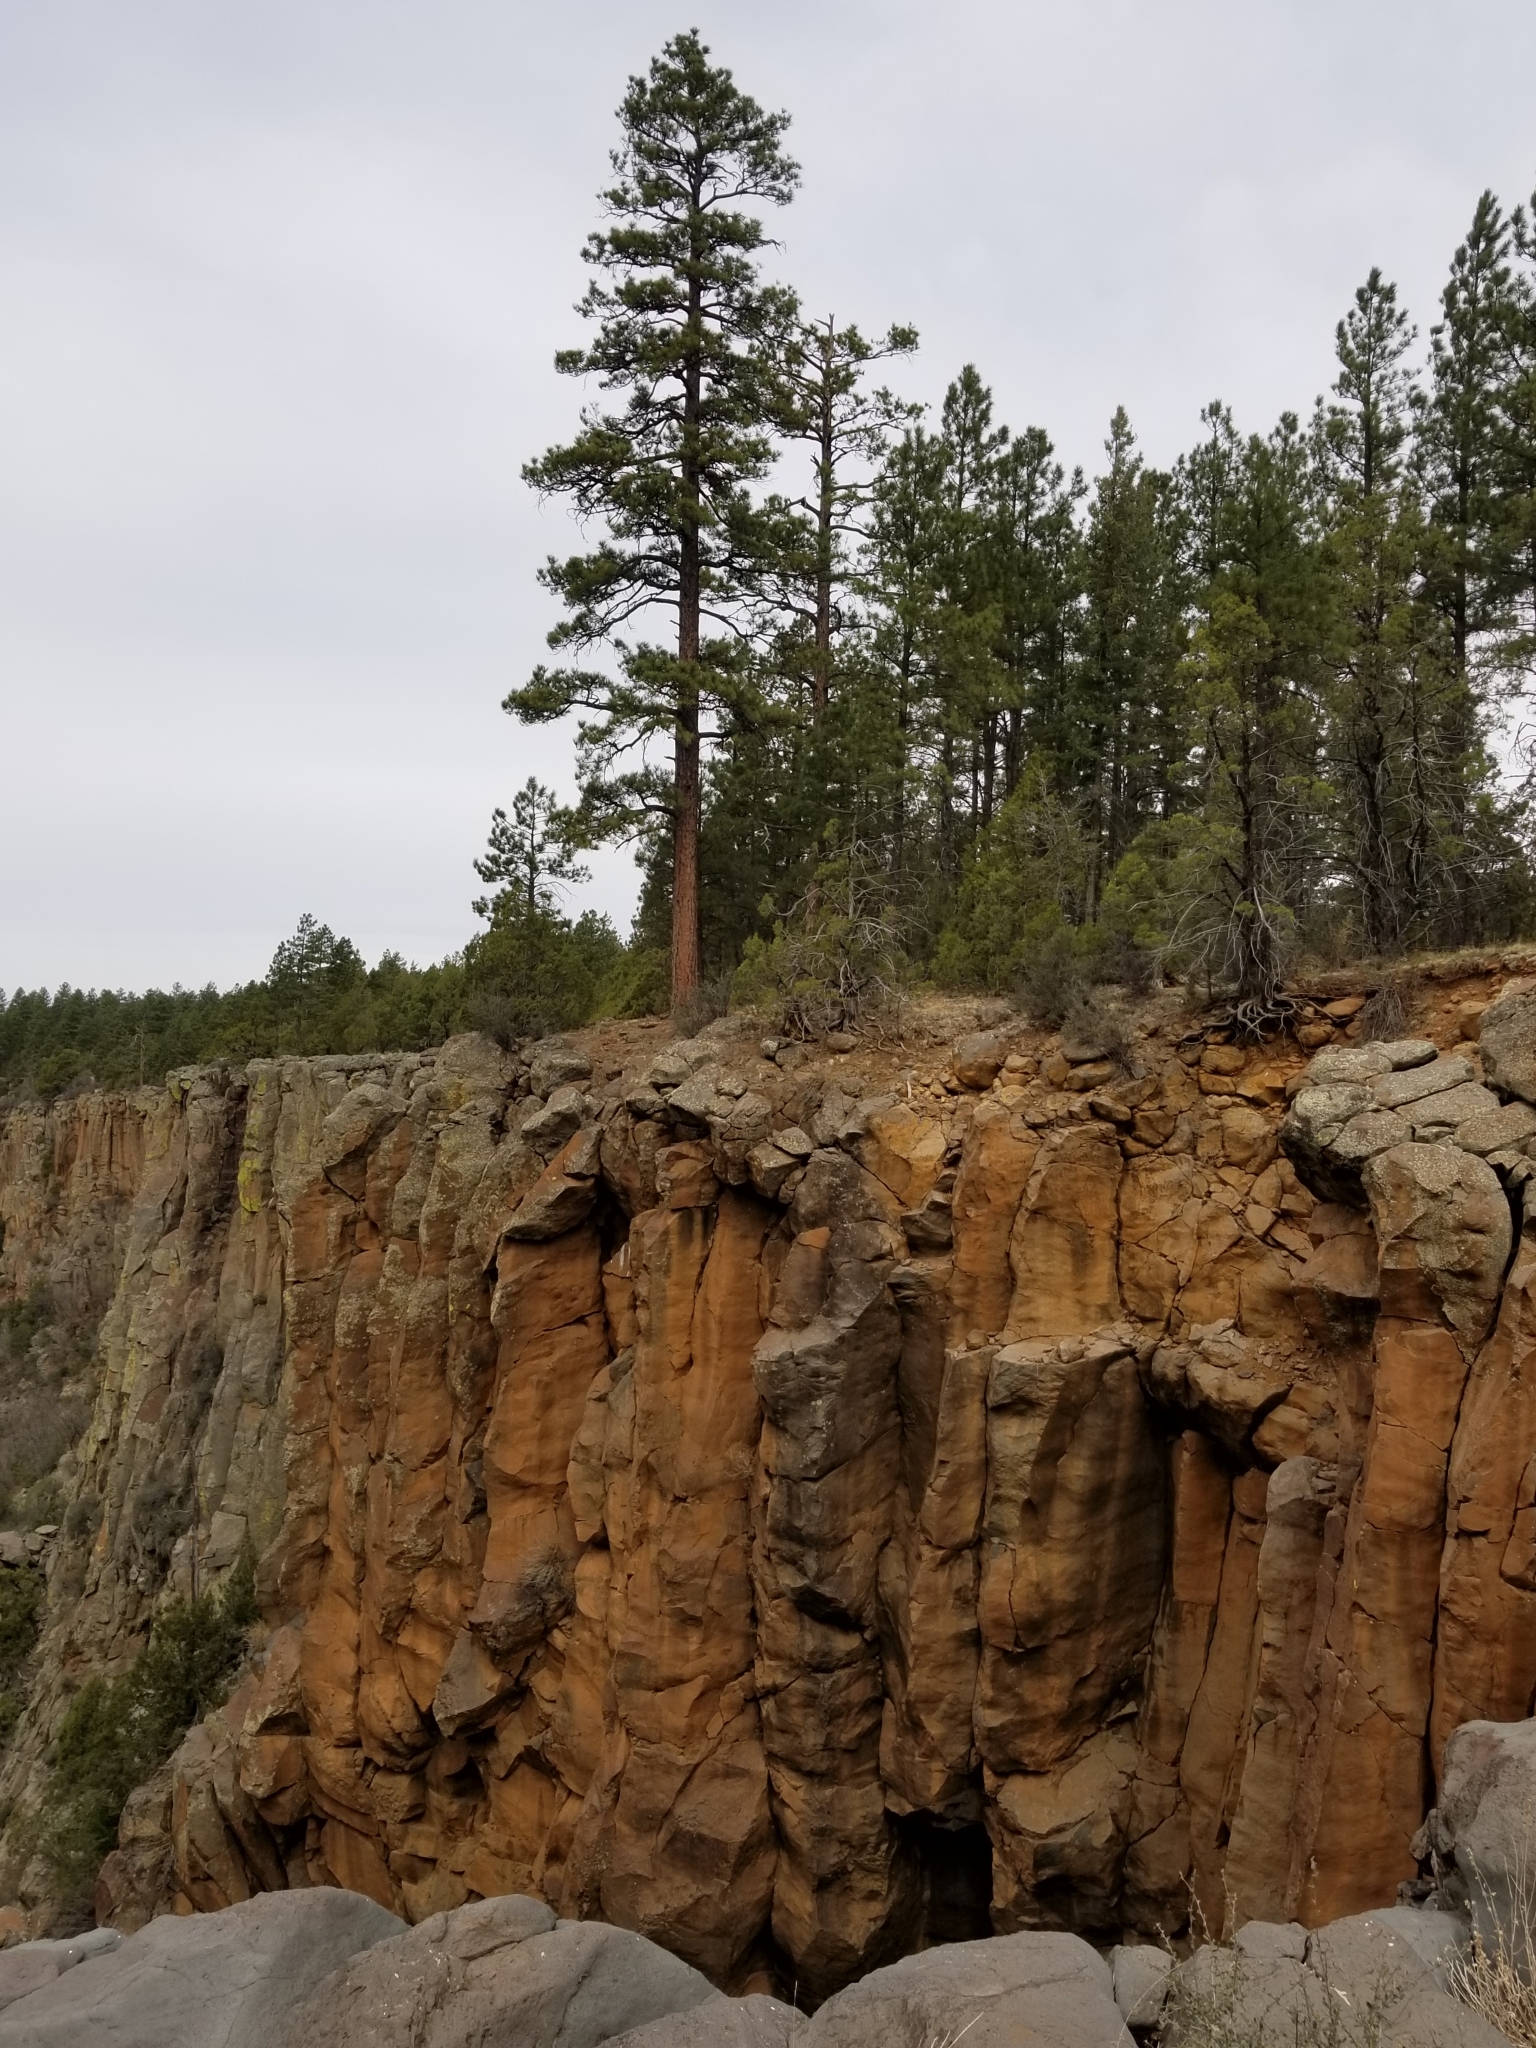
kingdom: Plantae
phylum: Tracheophyta
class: Pinopsida
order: Pinales
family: Pinaceae
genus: Pinus
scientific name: Pinus ponderosa
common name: Western yellow-pine
